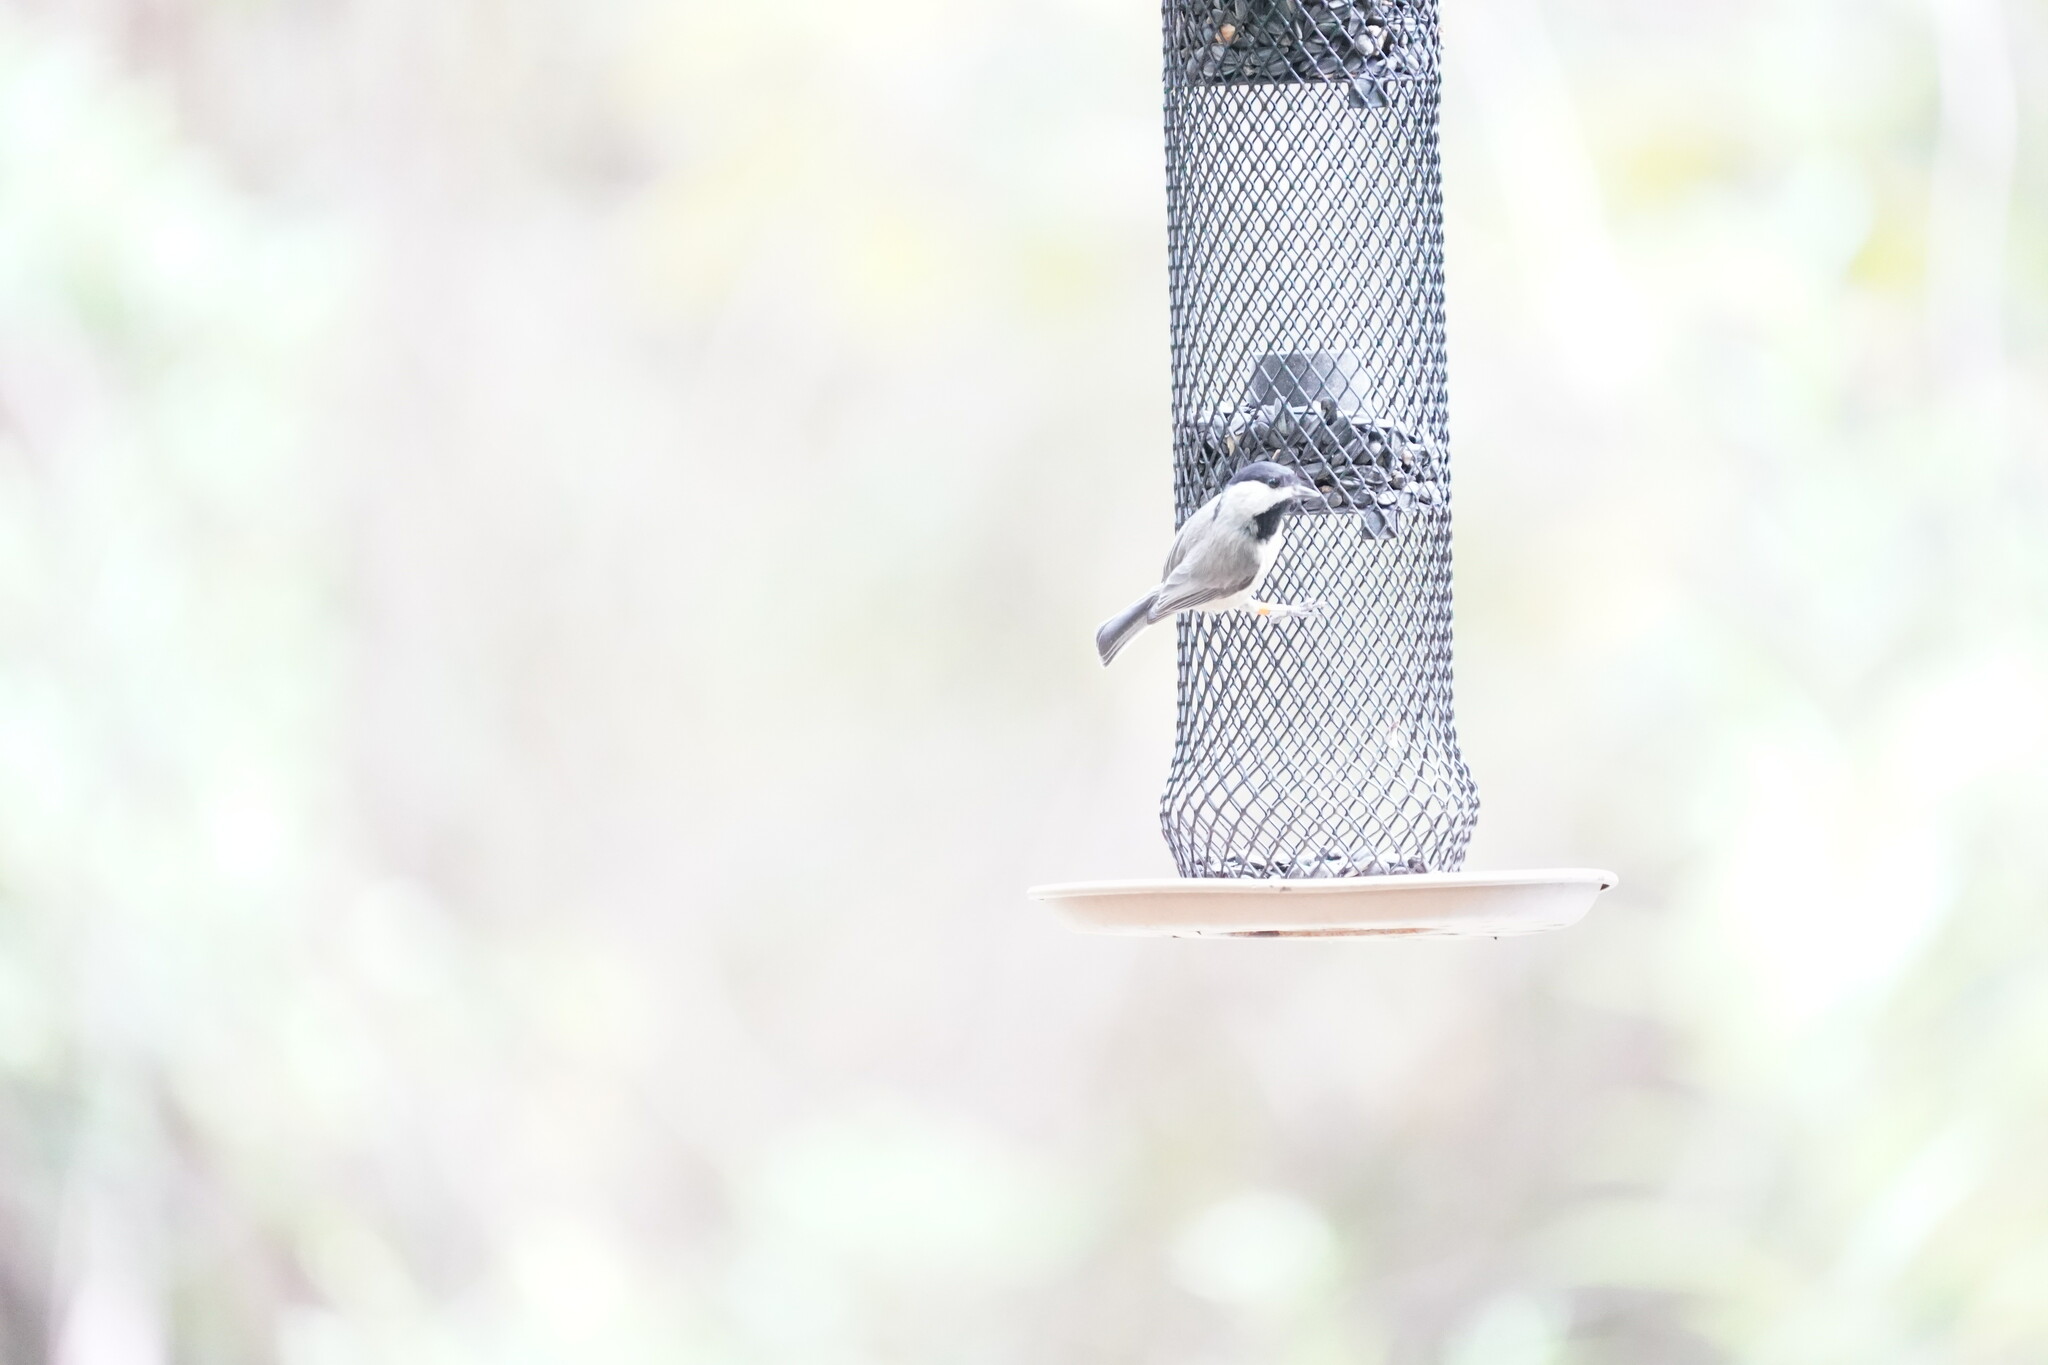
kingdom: Animalia
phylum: Chordata
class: Aves
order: Passeriformes
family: Paridae
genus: Poecile
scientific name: Poecile carolinensis
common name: Carolina chickadee
